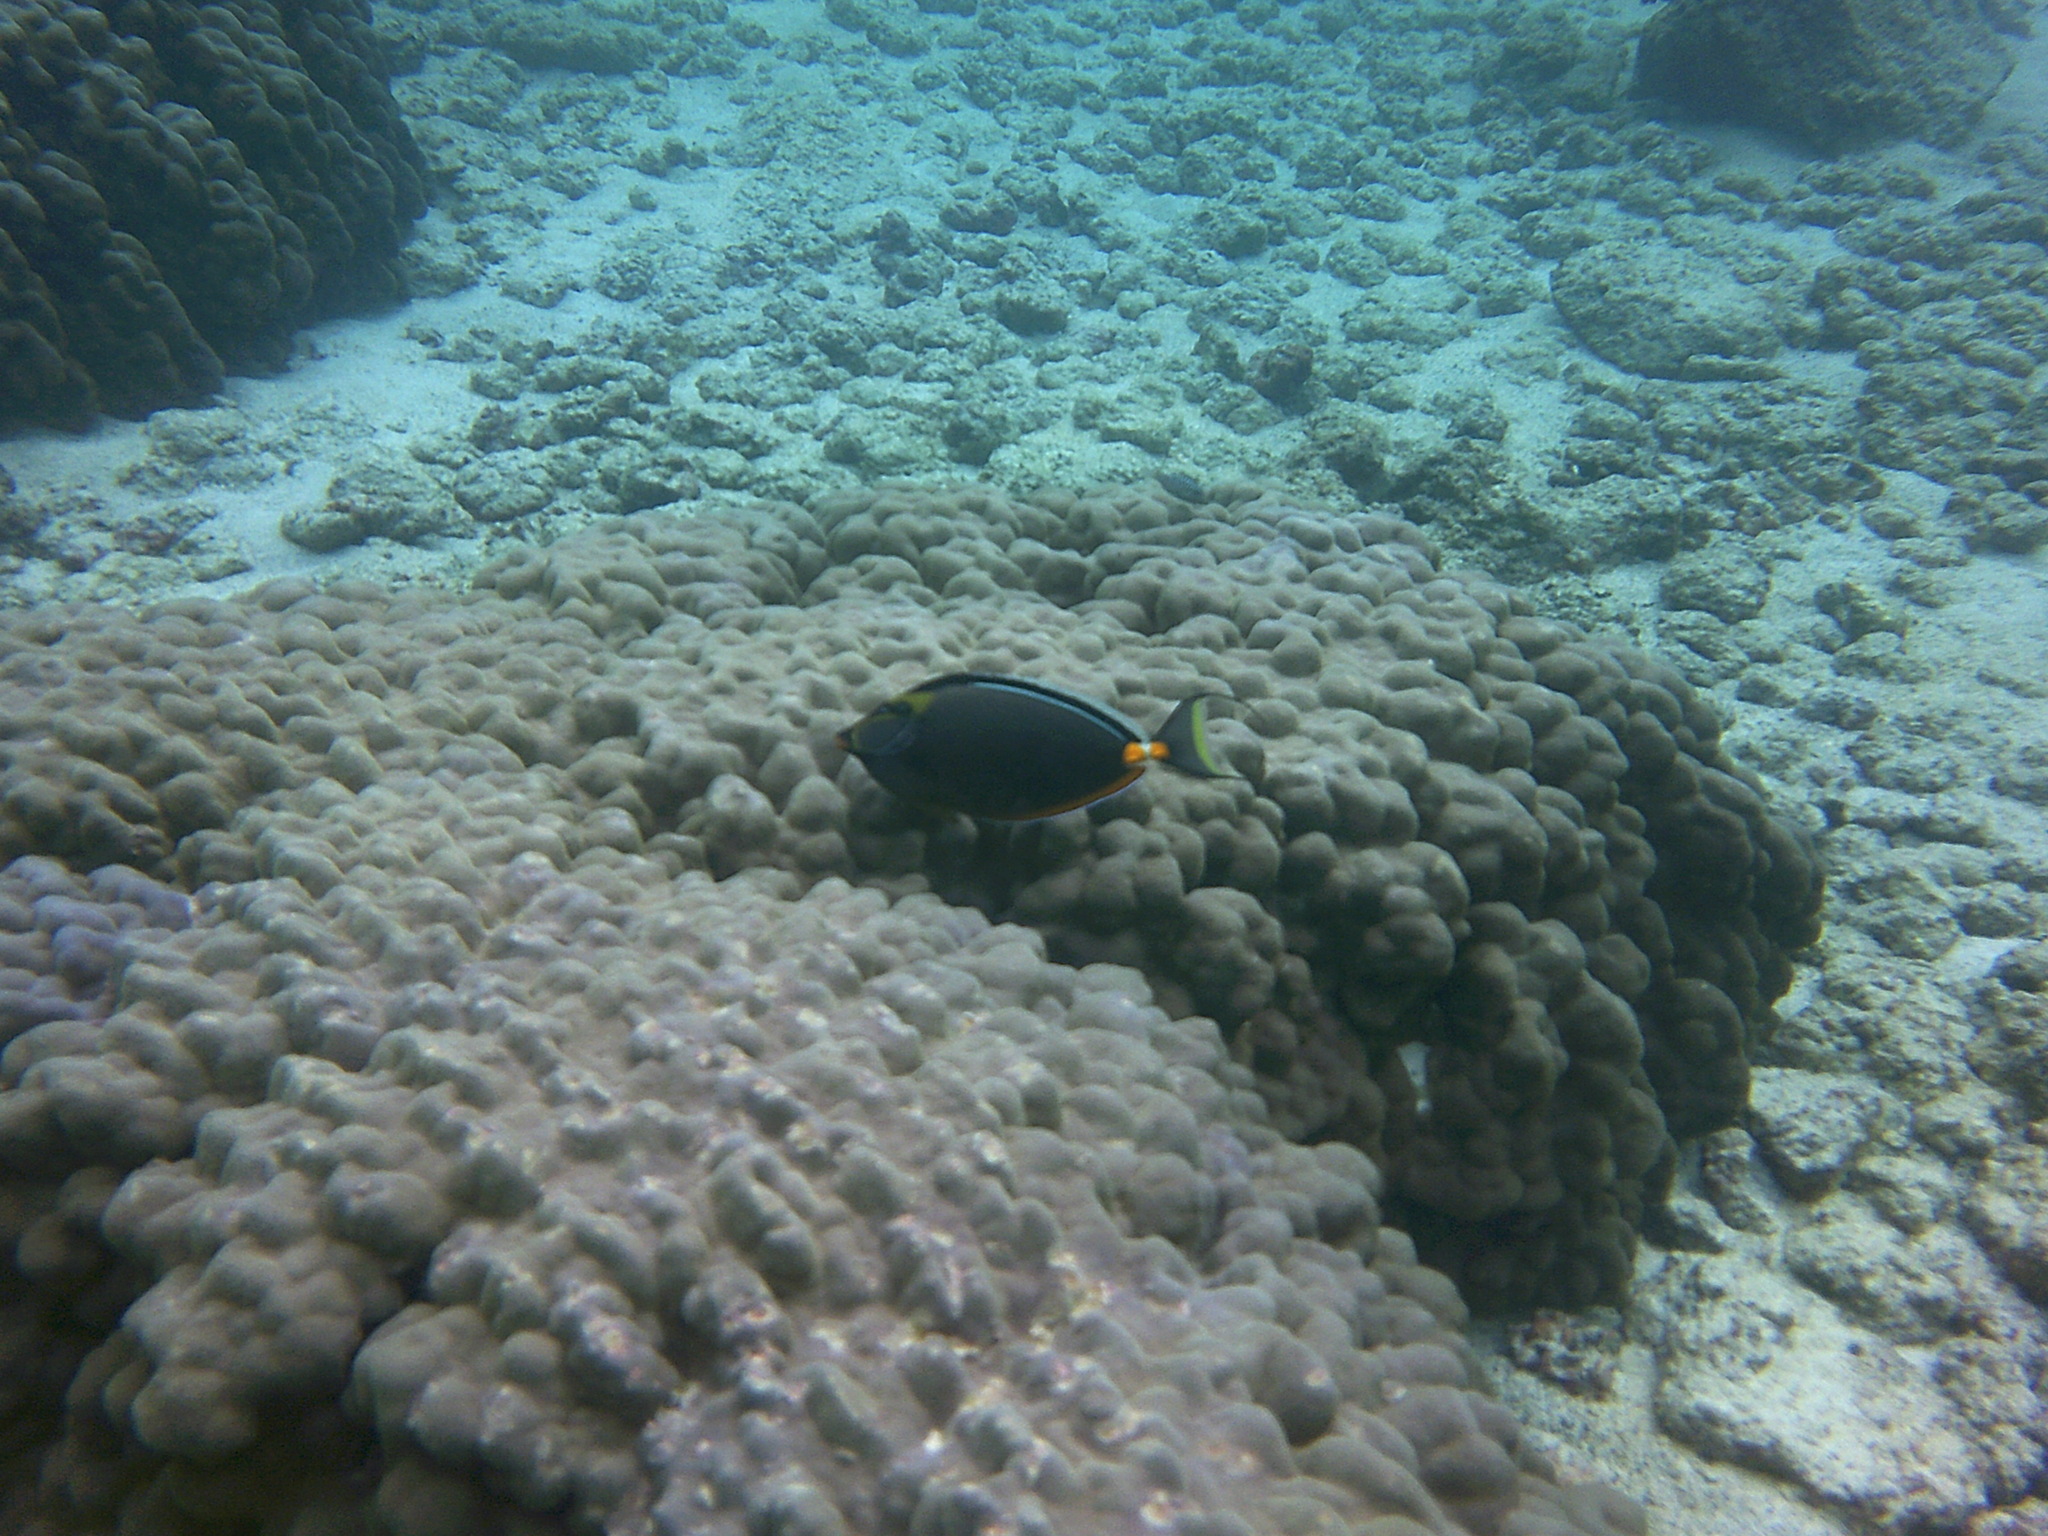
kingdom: Animalia
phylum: Chordata
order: Perciformes
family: Acanthuridae
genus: Naso
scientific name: Naso lituratus
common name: Orangespine unicornfish
